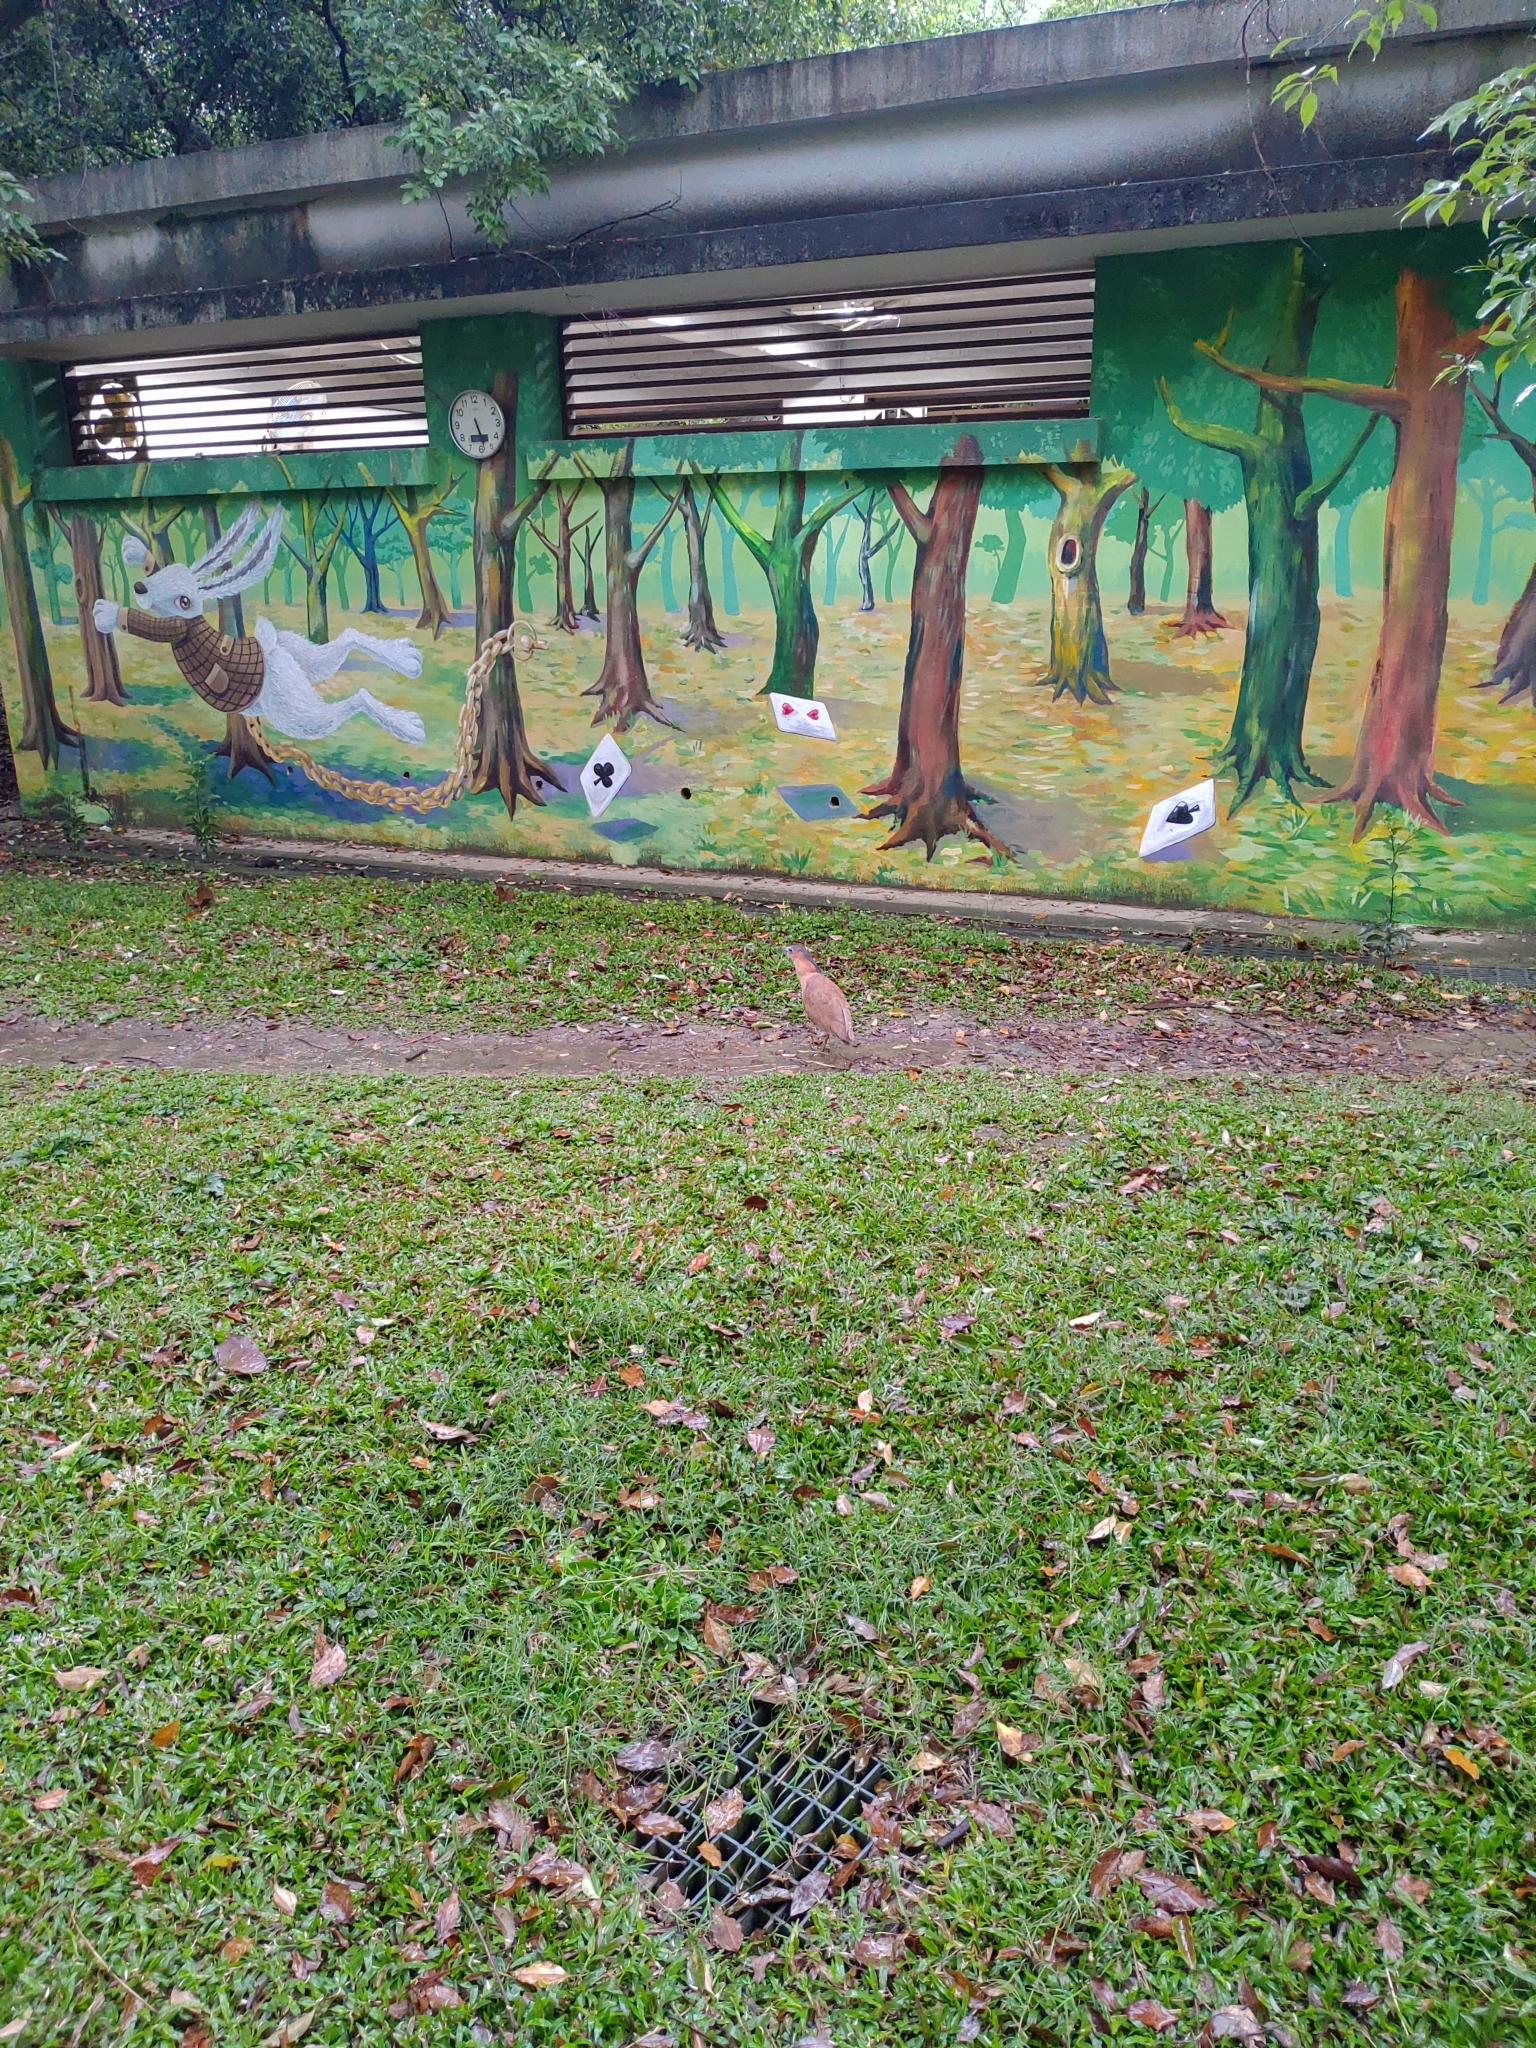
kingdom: Animalia
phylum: Chordata
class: Aves
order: Pelecaniformes
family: Ardeidae
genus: Gorsachius
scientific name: Gorsachius melanolophus
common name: Malayan night heron
